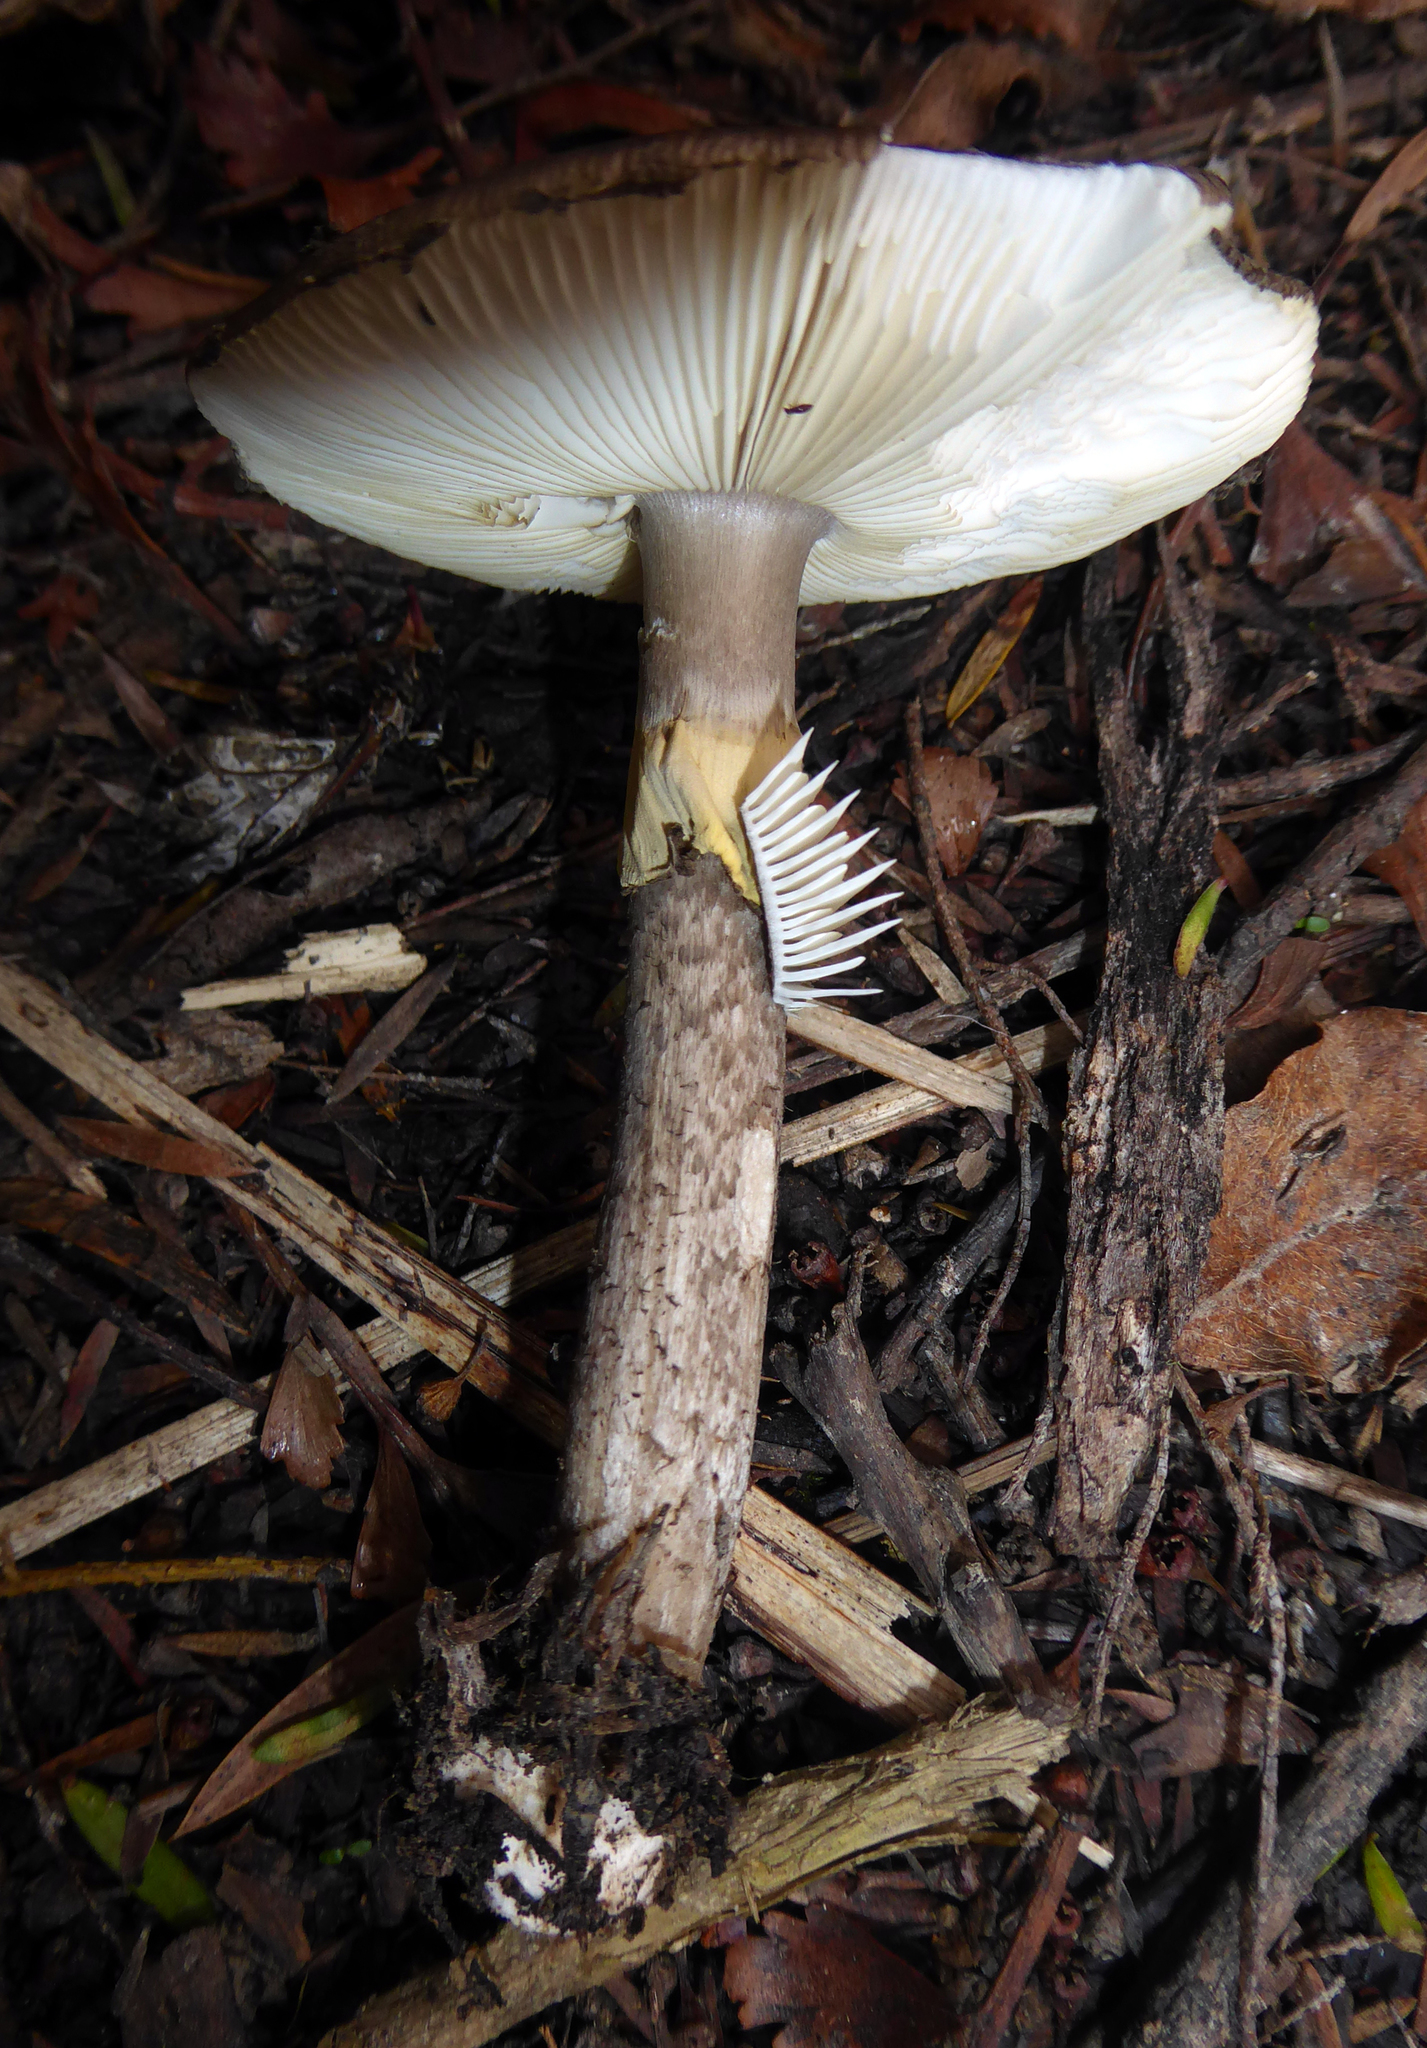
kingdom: Fungi
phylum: Basidiomycota
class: Agaricomycetes
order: Agaricales
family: Amanitaceae
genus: Amanita
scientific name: Amanita nothofagi
